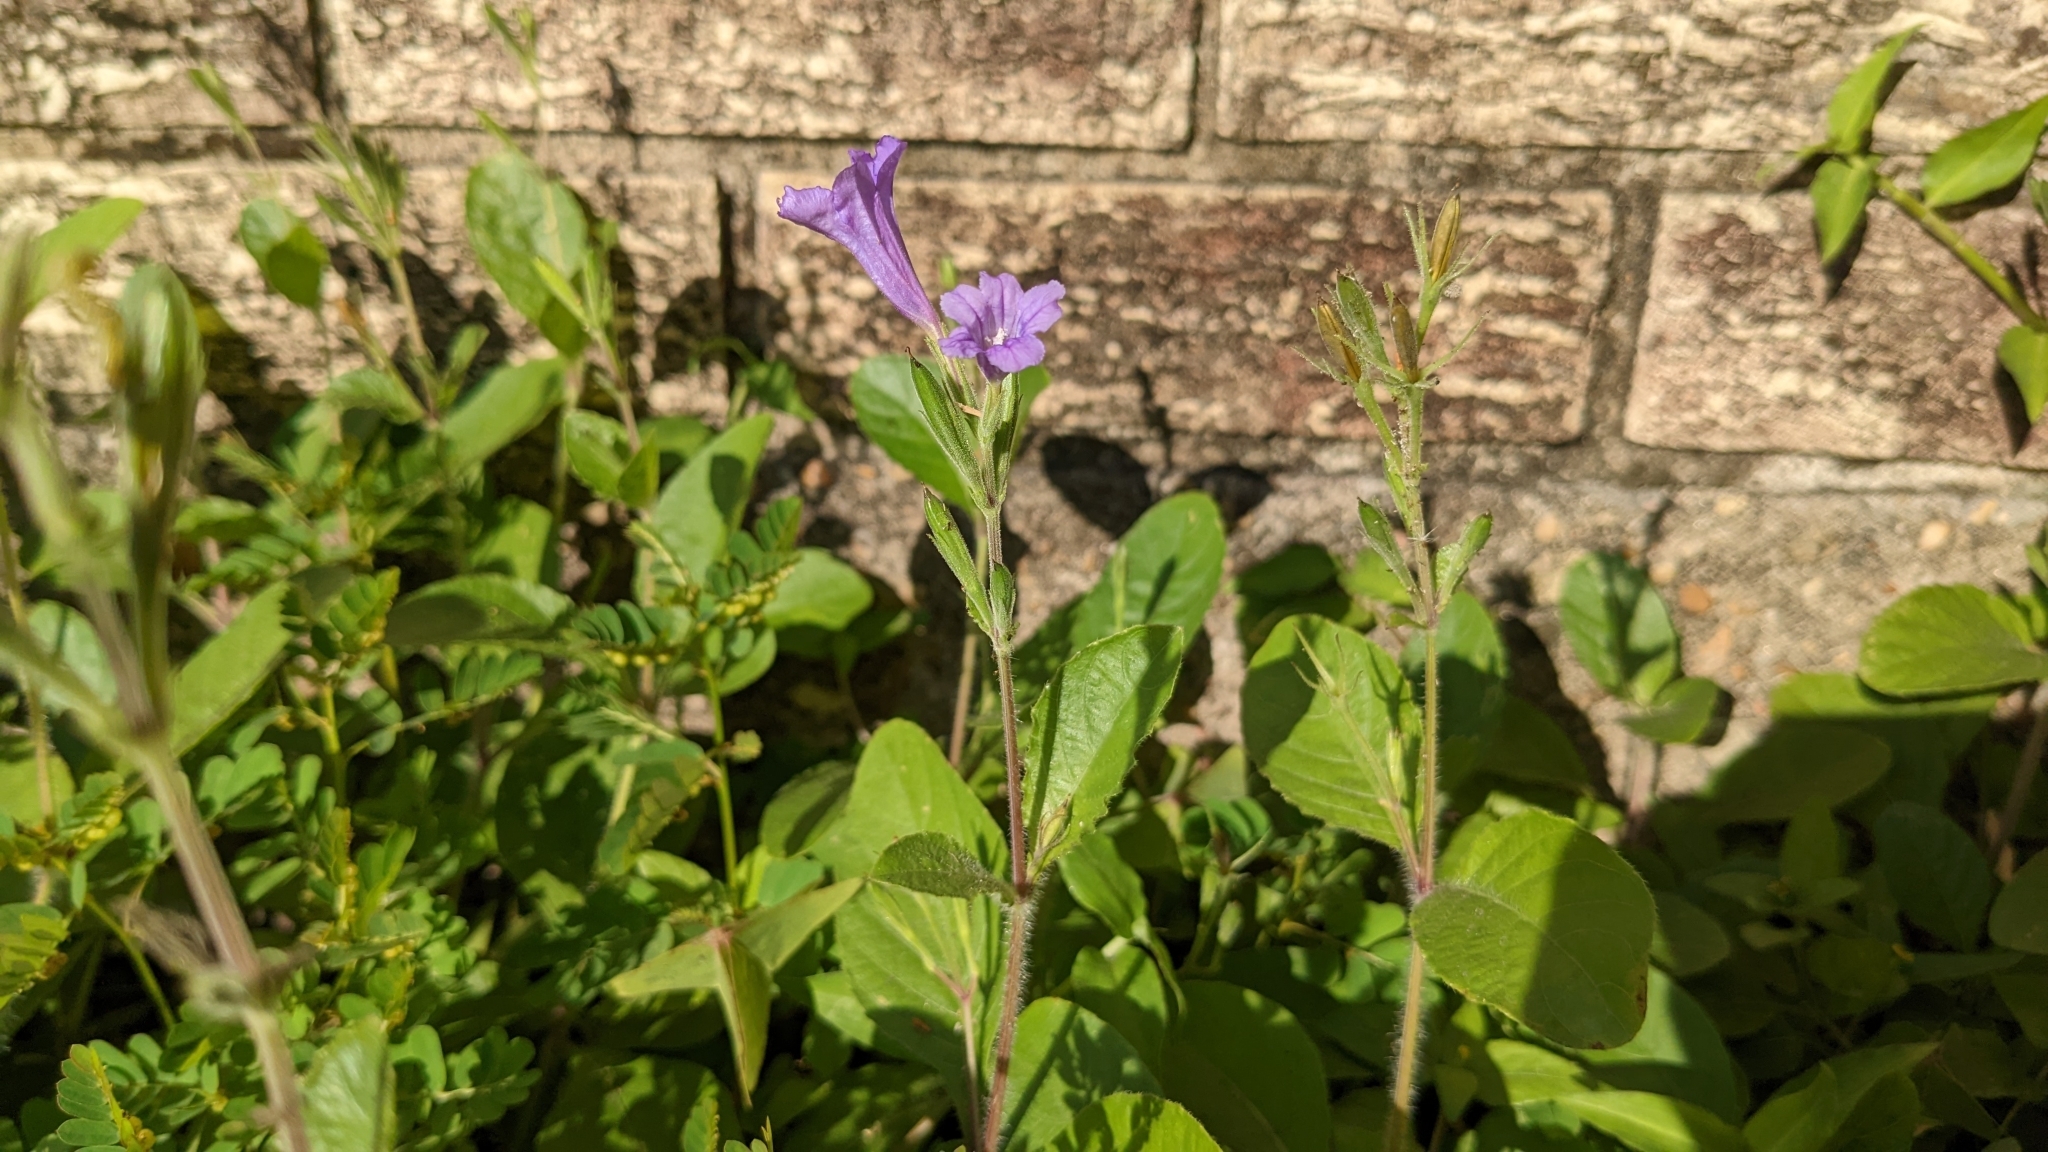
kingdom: Plantae
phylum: Tracheophyta
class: Magnoliopsida
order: Lamiales
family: Acanthaceae
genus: Ruellia
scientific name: Ruellia ciliatiflora
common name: Hairyflower wild petunia
